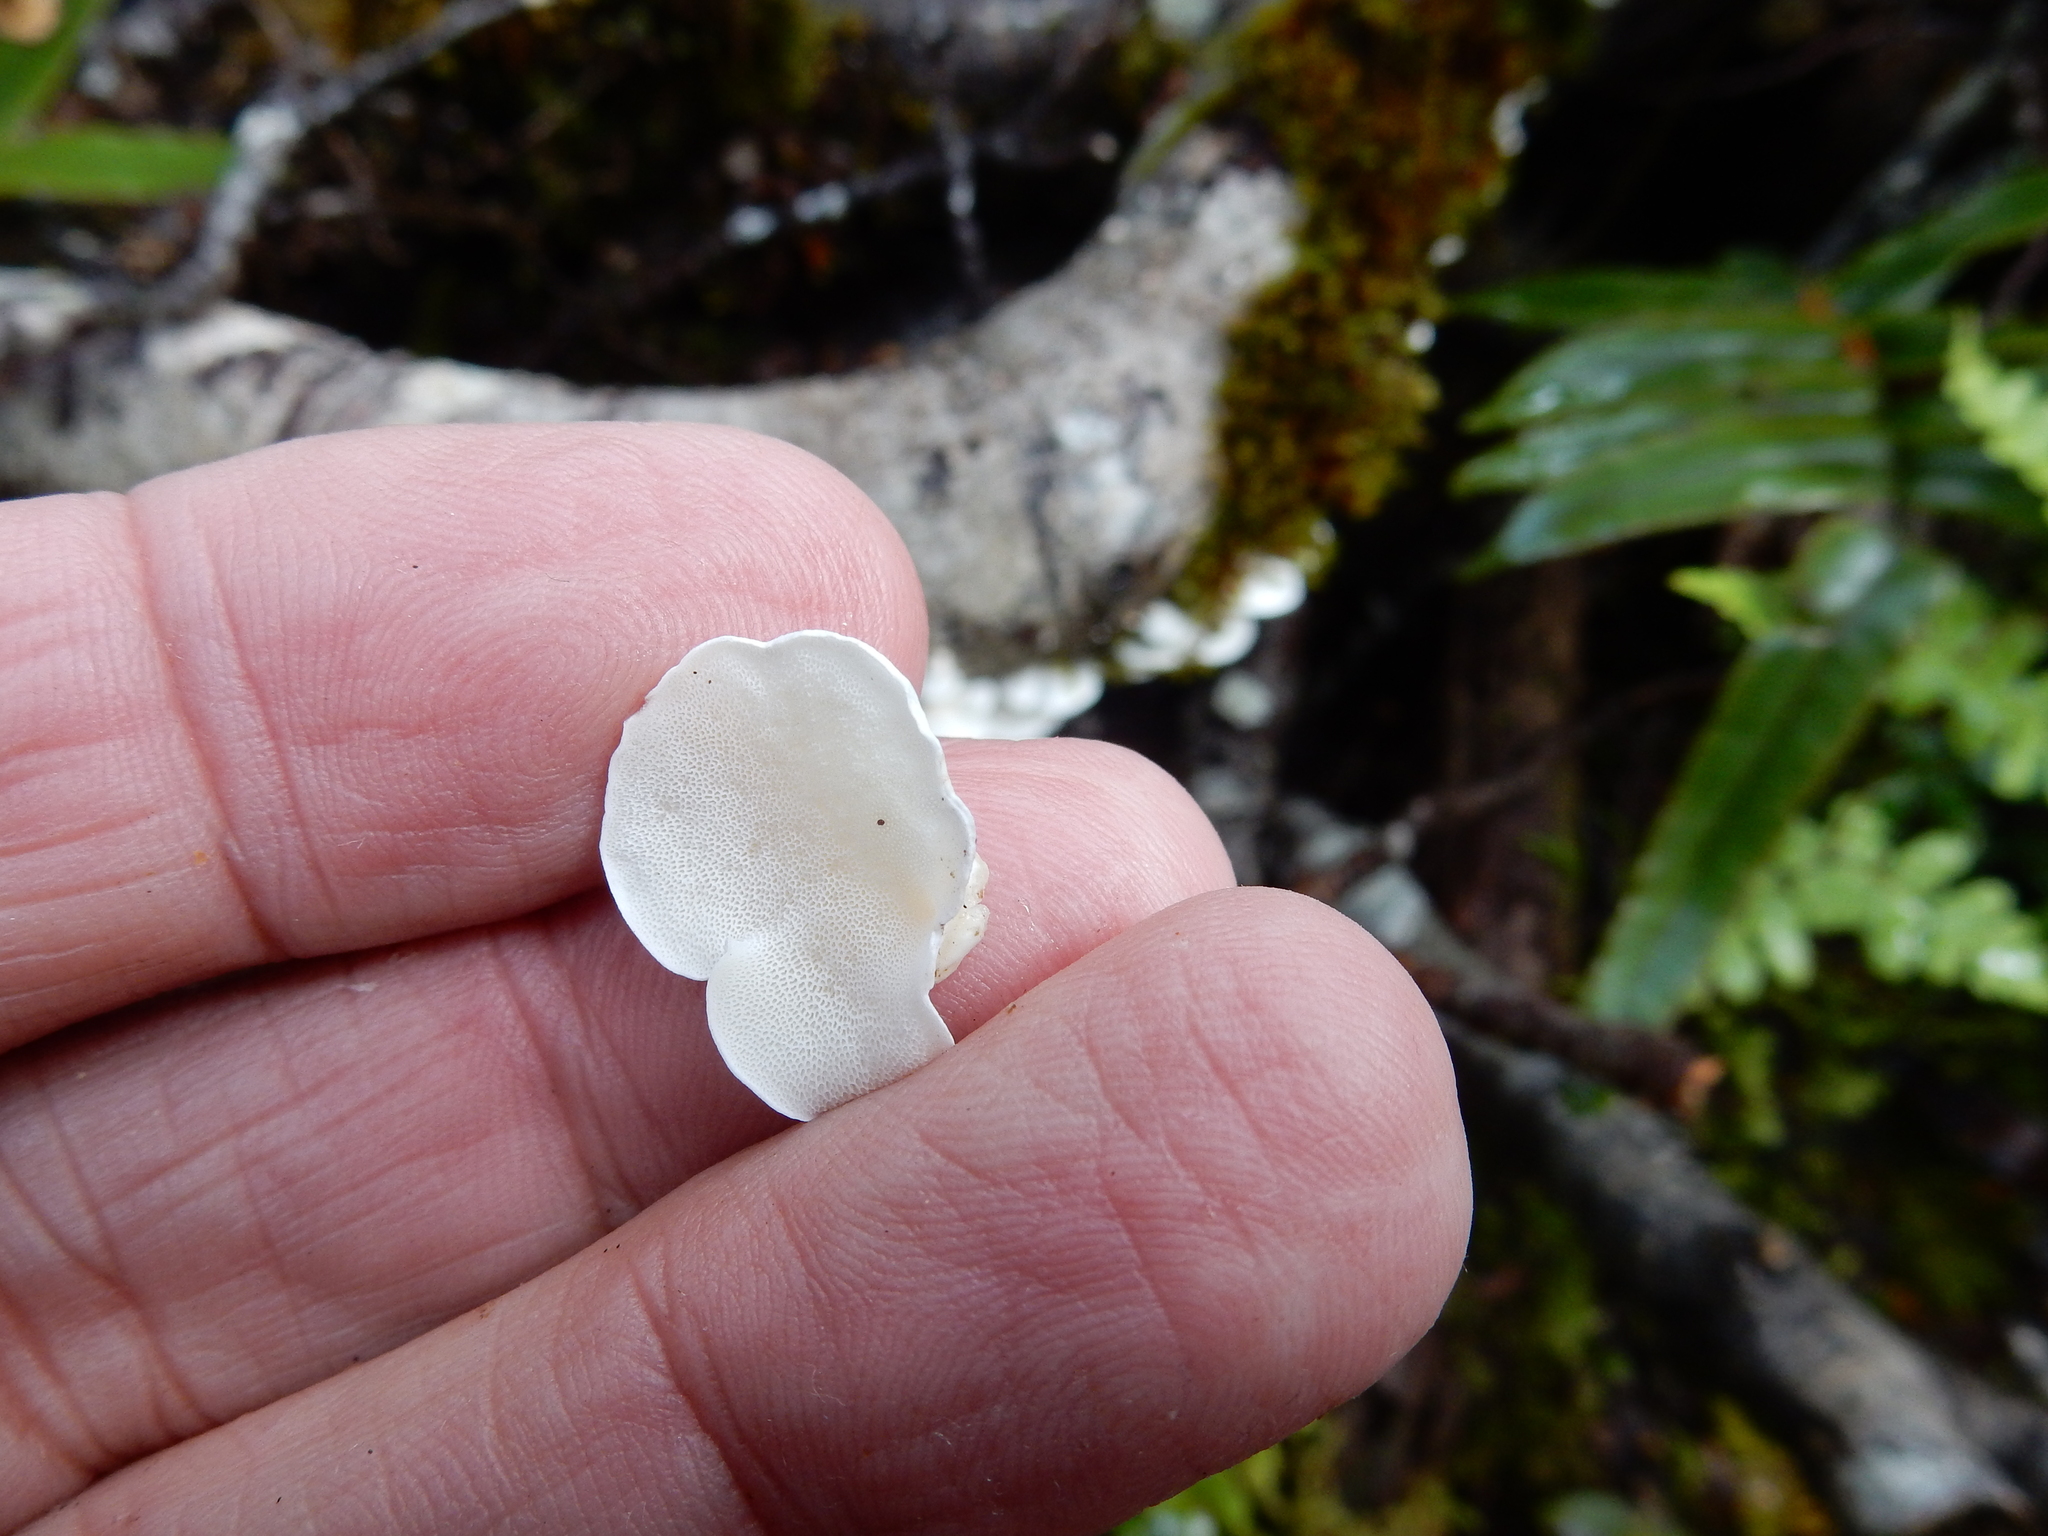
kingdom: Fungi
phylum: Basidiomycota
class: Agaricomycetes
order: Polyporales
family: Irpicaceae
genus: Gloeoporus
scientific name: Gloeoporus phlebophorus
